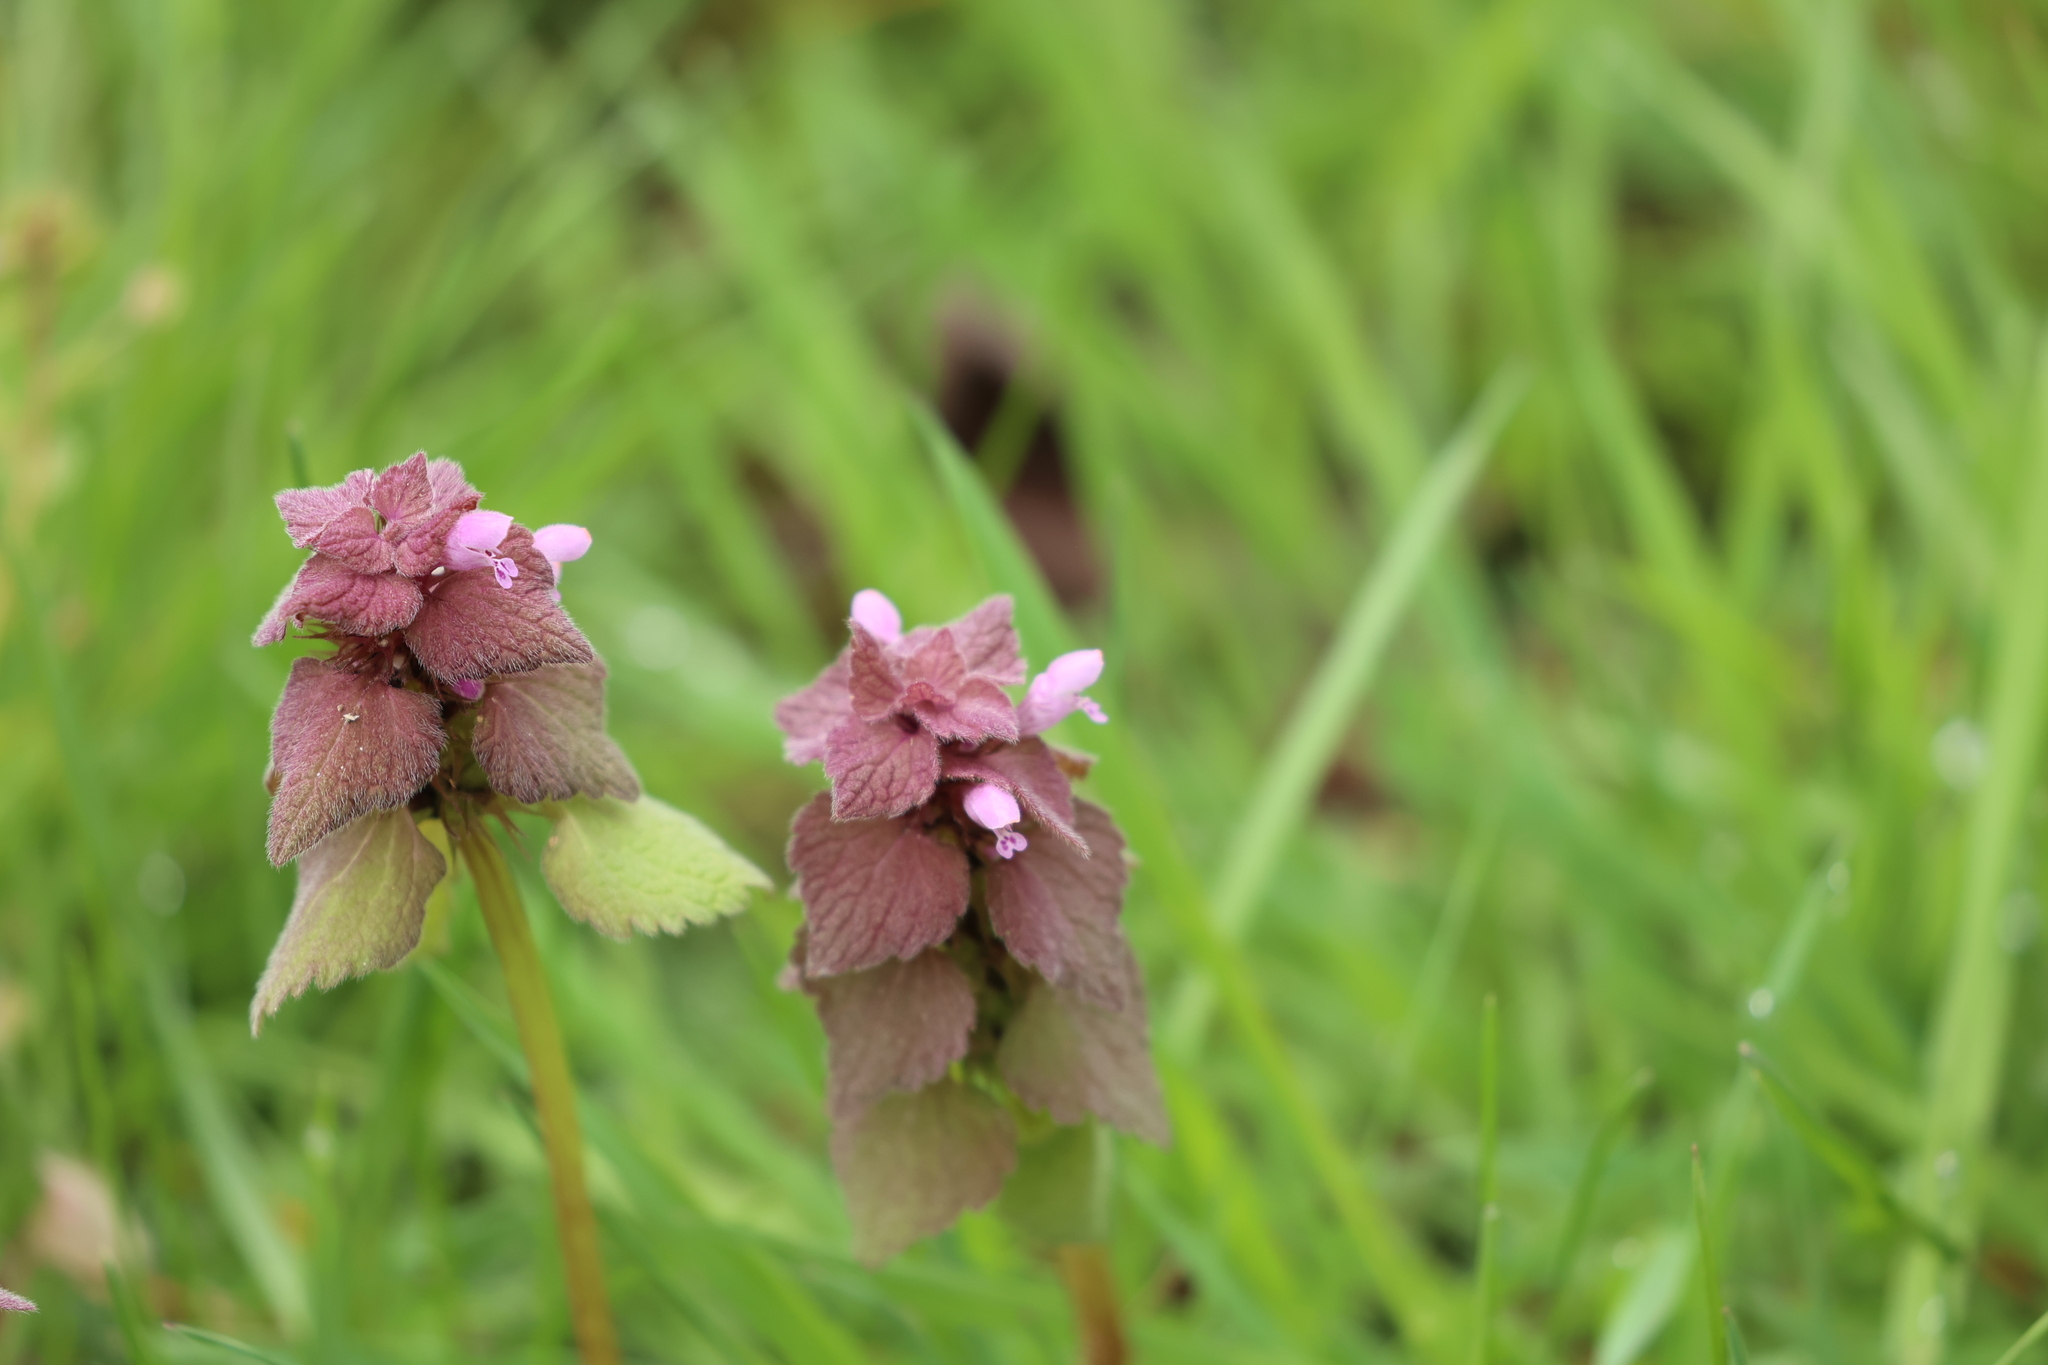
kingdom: Plantae
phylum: Tracheophyta
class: Magnoliopsida
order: Lamiales
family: Lamiaceae
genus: Lamium
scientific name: Lamium purpureum
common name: Red dead-nettle
